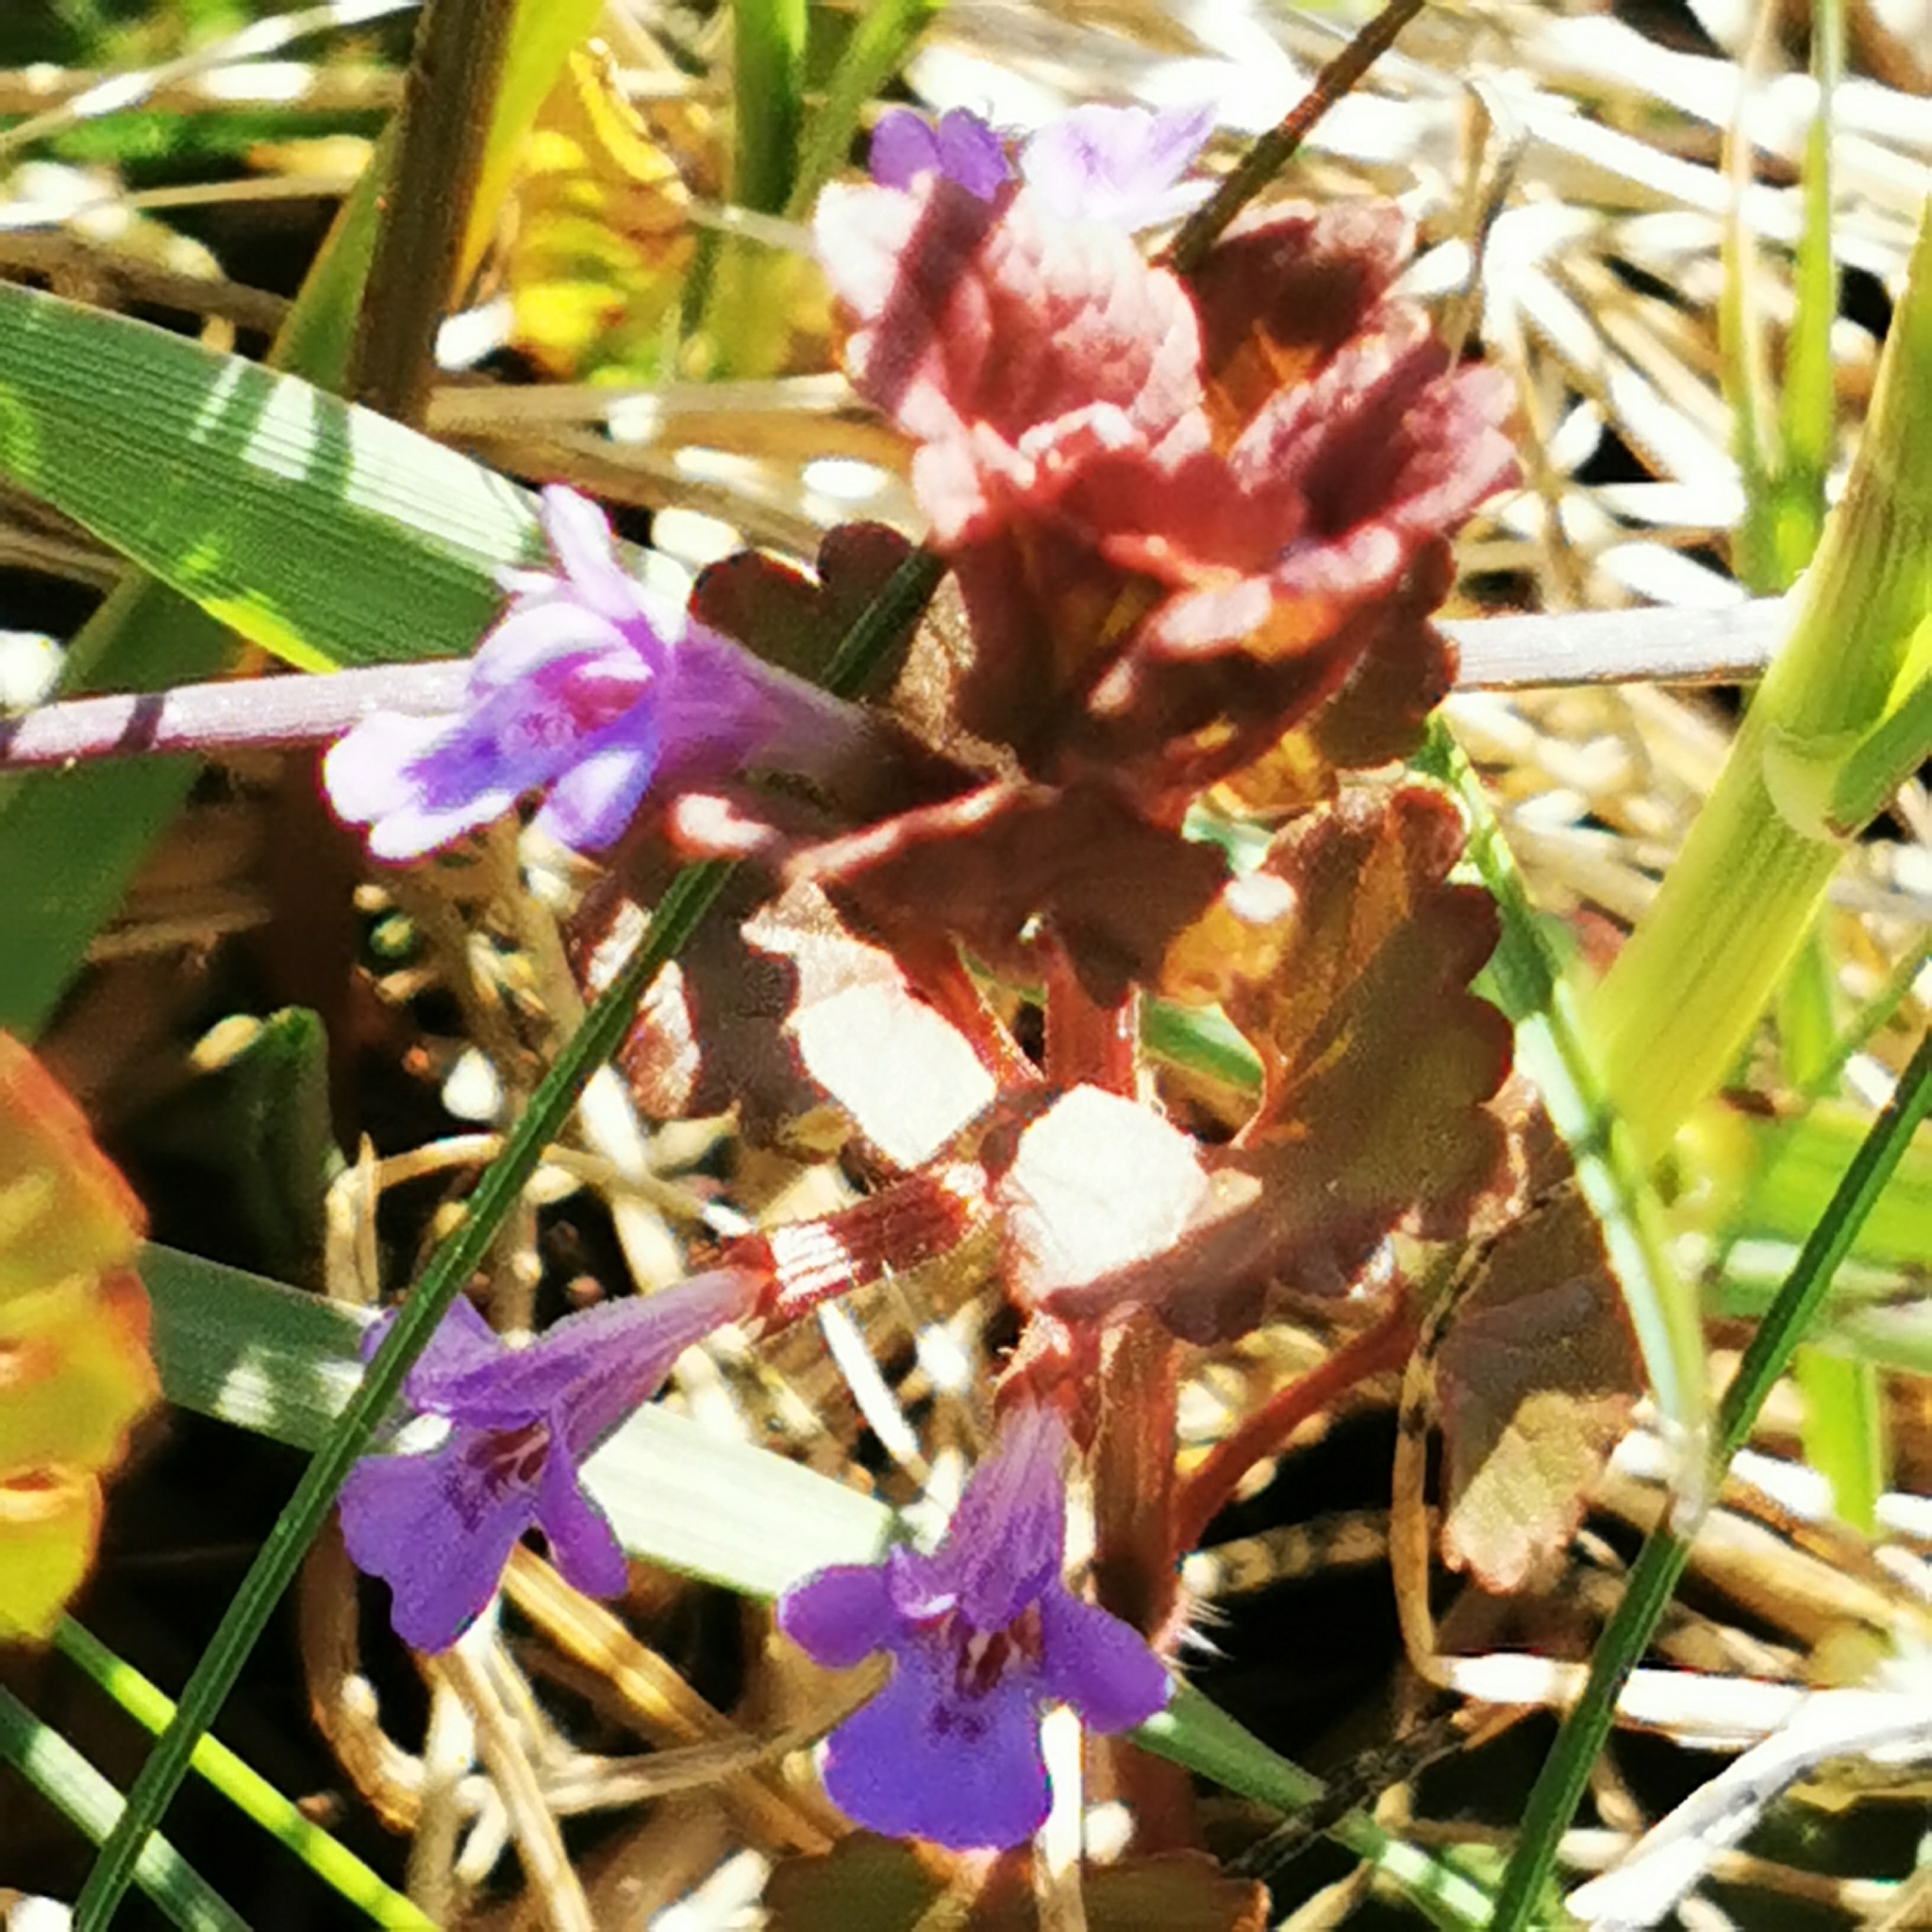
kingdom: Plantae
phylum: Tracheophyta
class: Magnoliopsida
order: Lamiales
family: Lamiaceae
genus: Glechoma
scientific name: Glechoma hederacea
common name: Ground ivy
